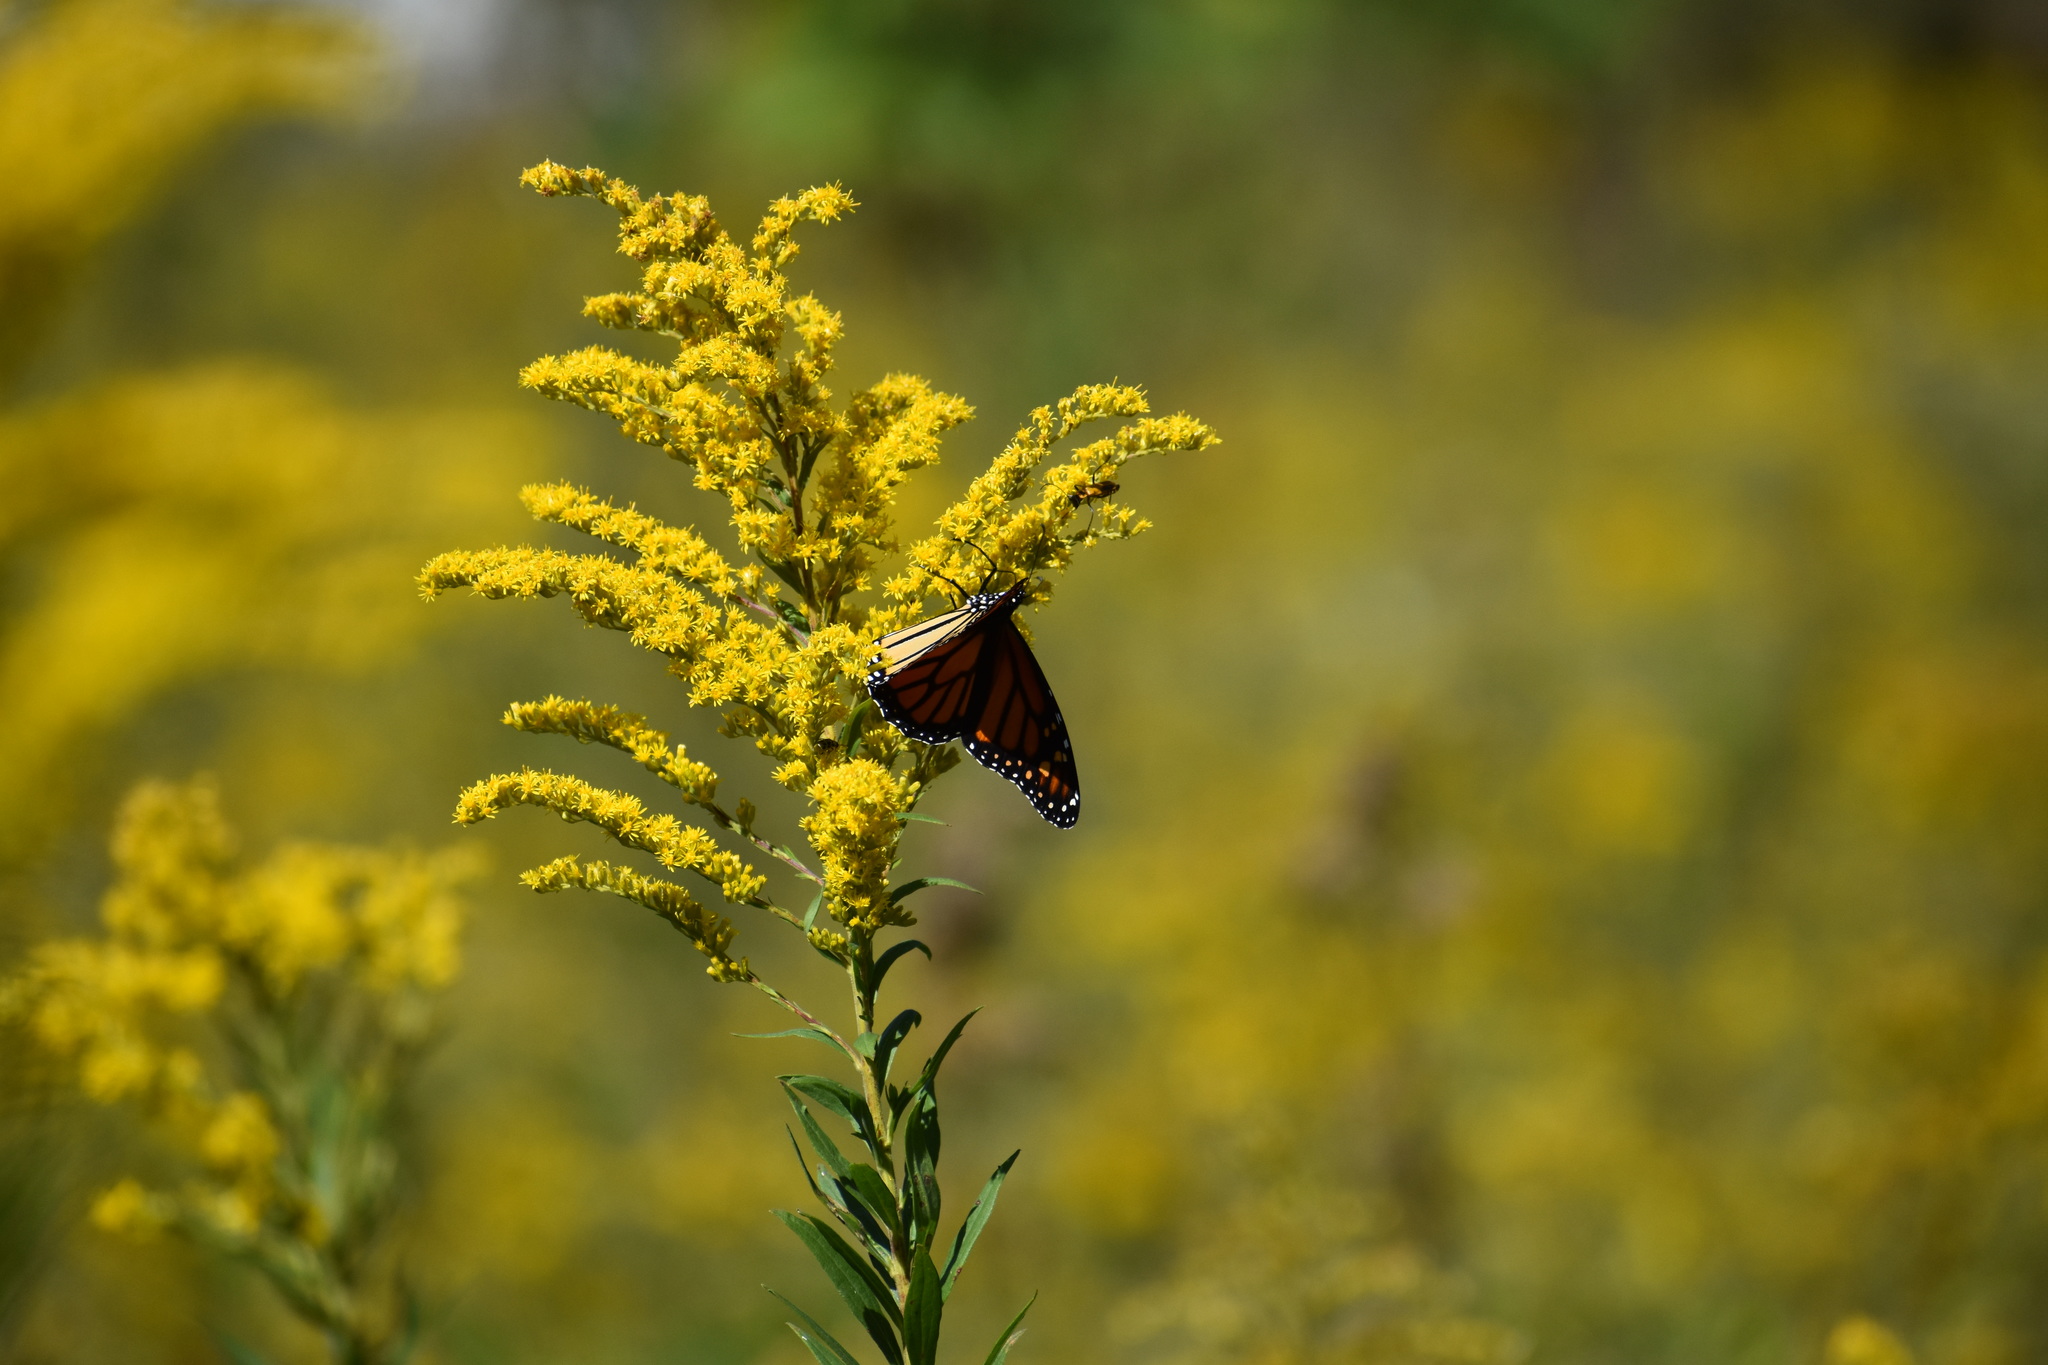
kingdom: Animalia
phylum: Arthropoda
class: Insecta
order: Lepidoptera
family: Nymphalidae
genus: Danaus
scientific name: Danaus plexippus
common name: Monarch
